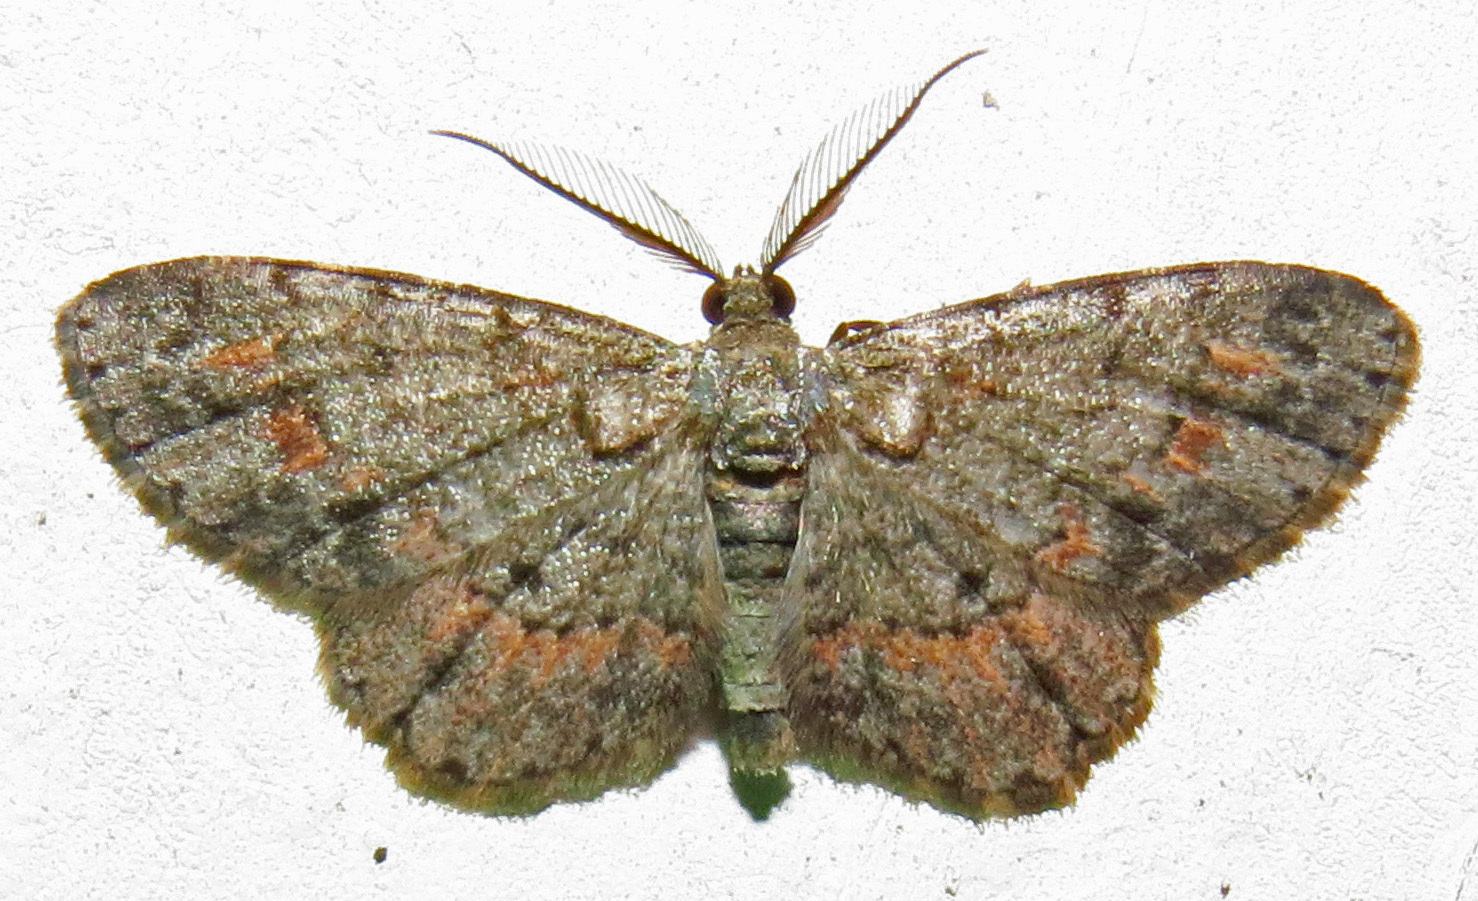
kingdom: Animalia
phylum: Arthropoda
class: Insecta
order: Lepidoptera
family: Geometridae
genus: Glenoides
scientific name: Glenoides texanaria
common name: Texas gray
